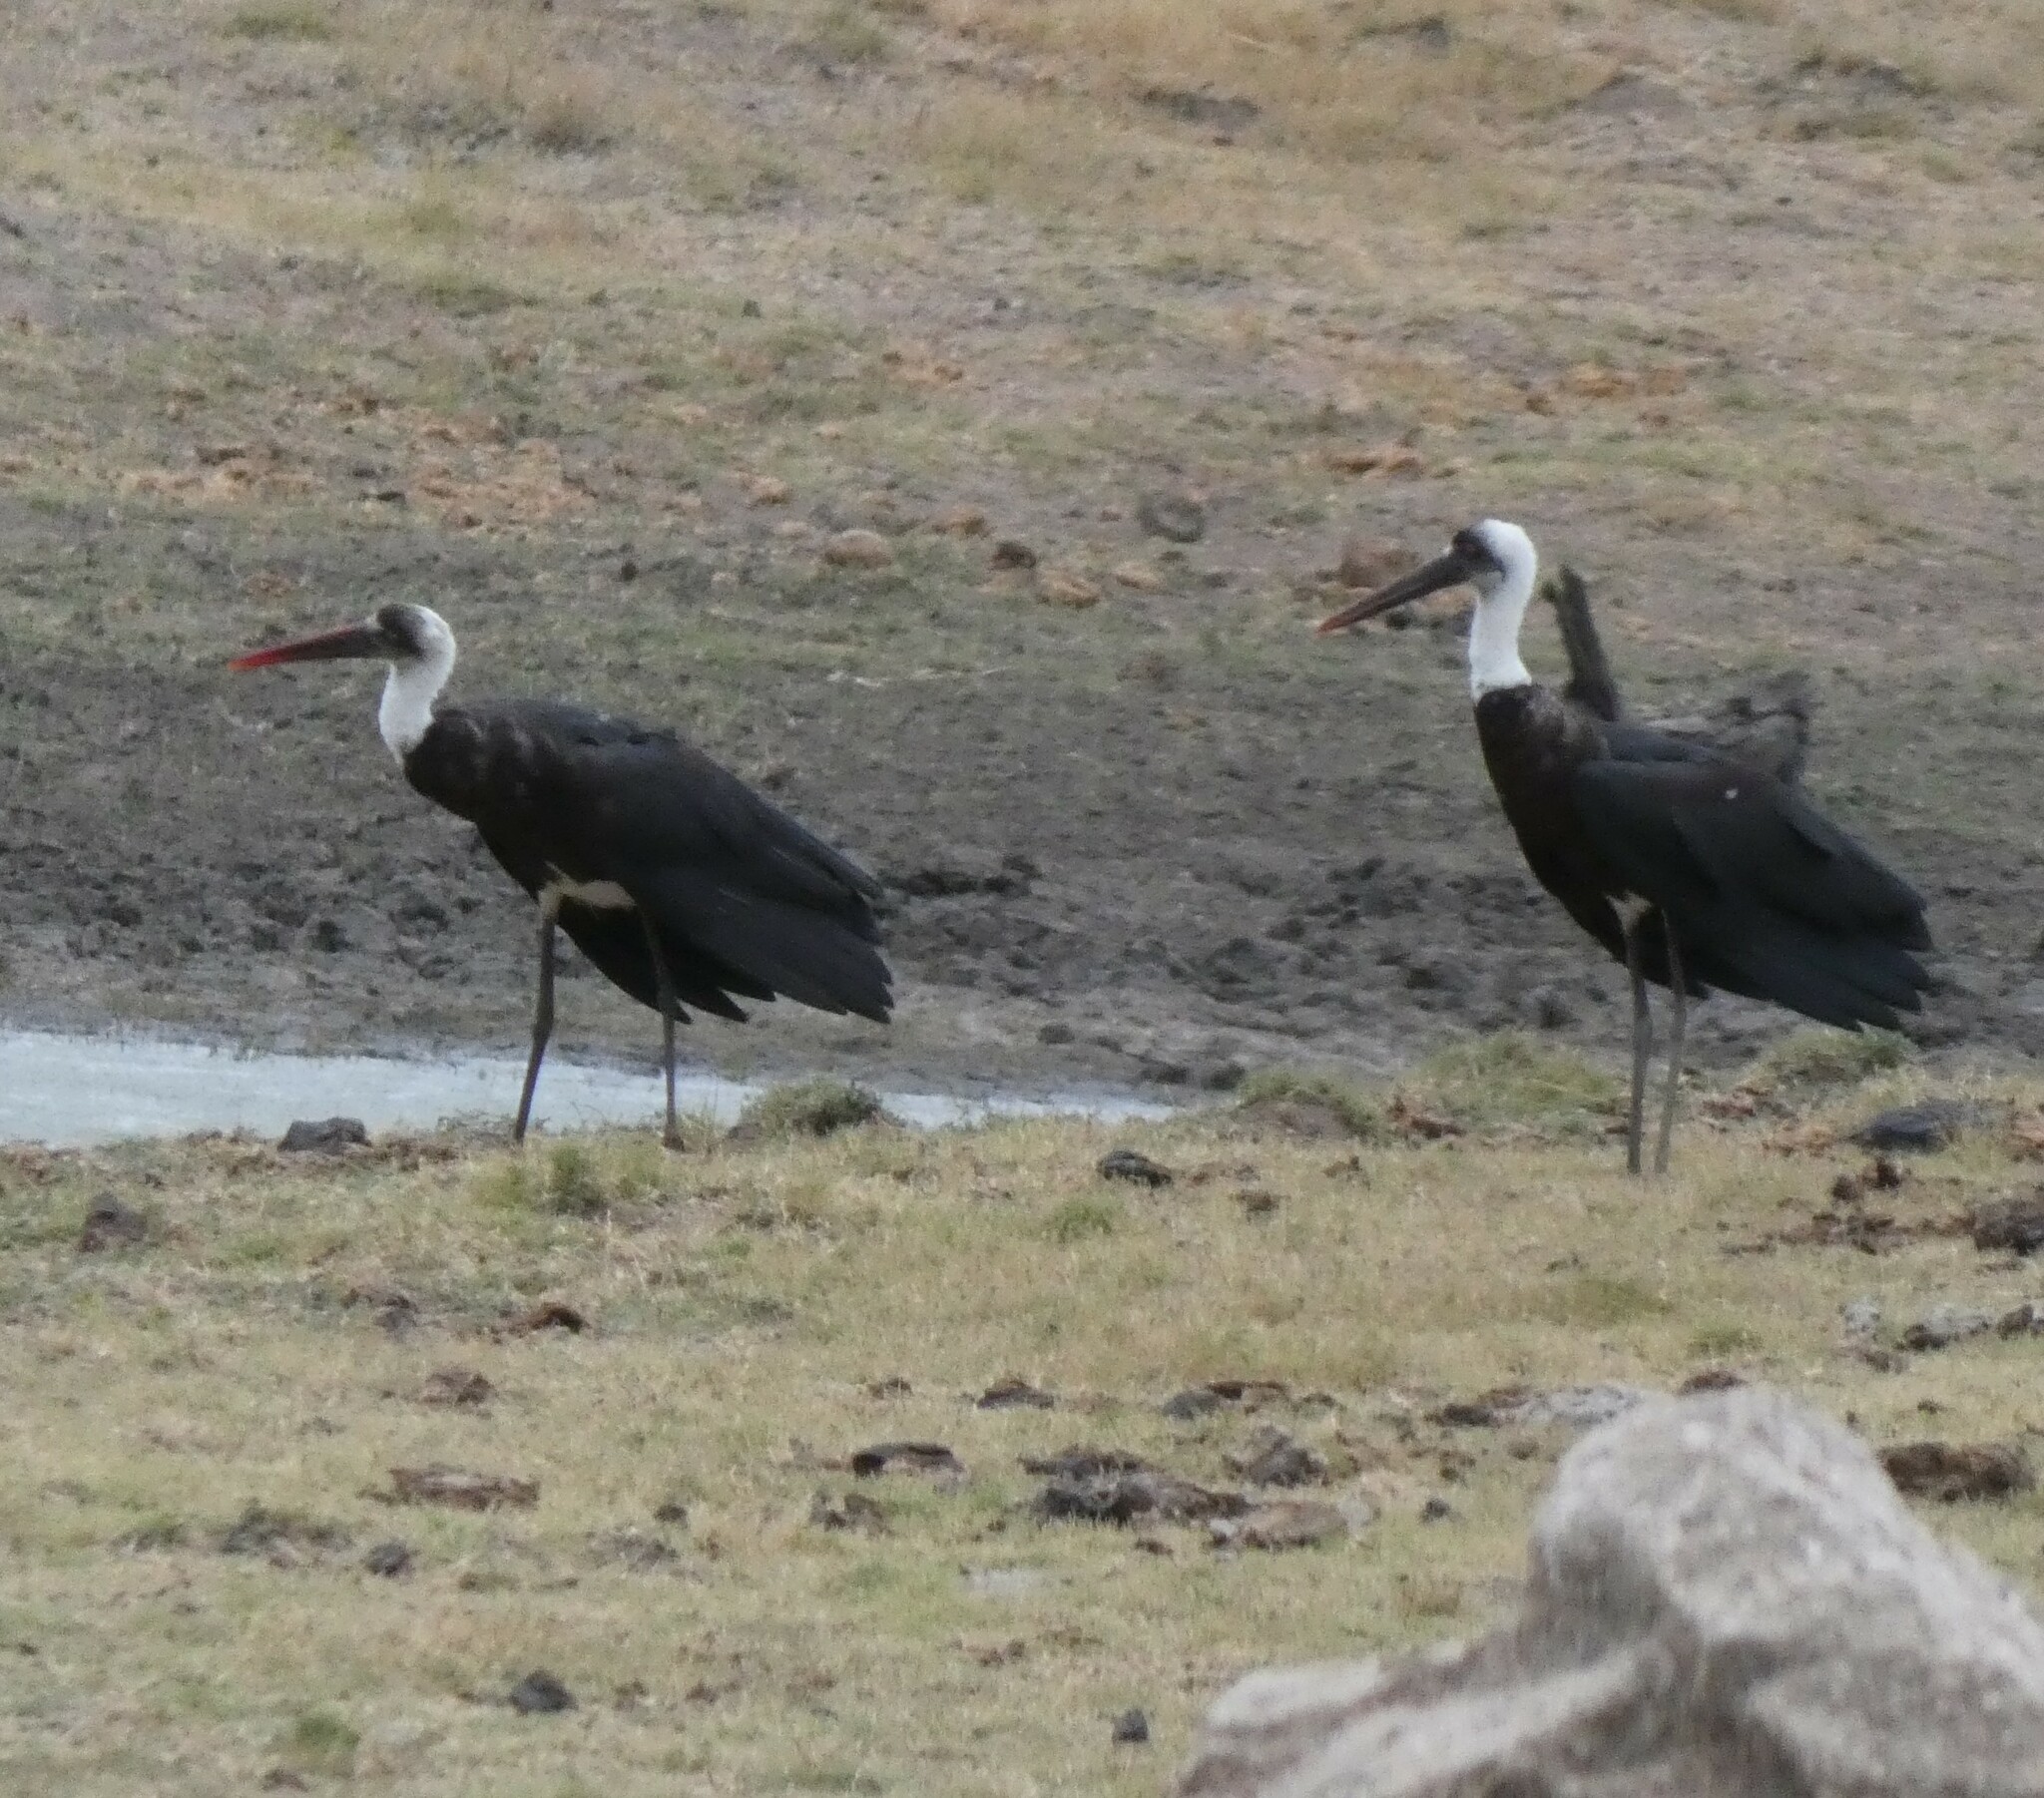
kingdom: Animalia
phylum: Chordata
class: Aves
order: Ciconiiformes
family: Ciconiidae
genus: Ciconia
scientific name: Ciconia microscelis
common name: African woollyneck
